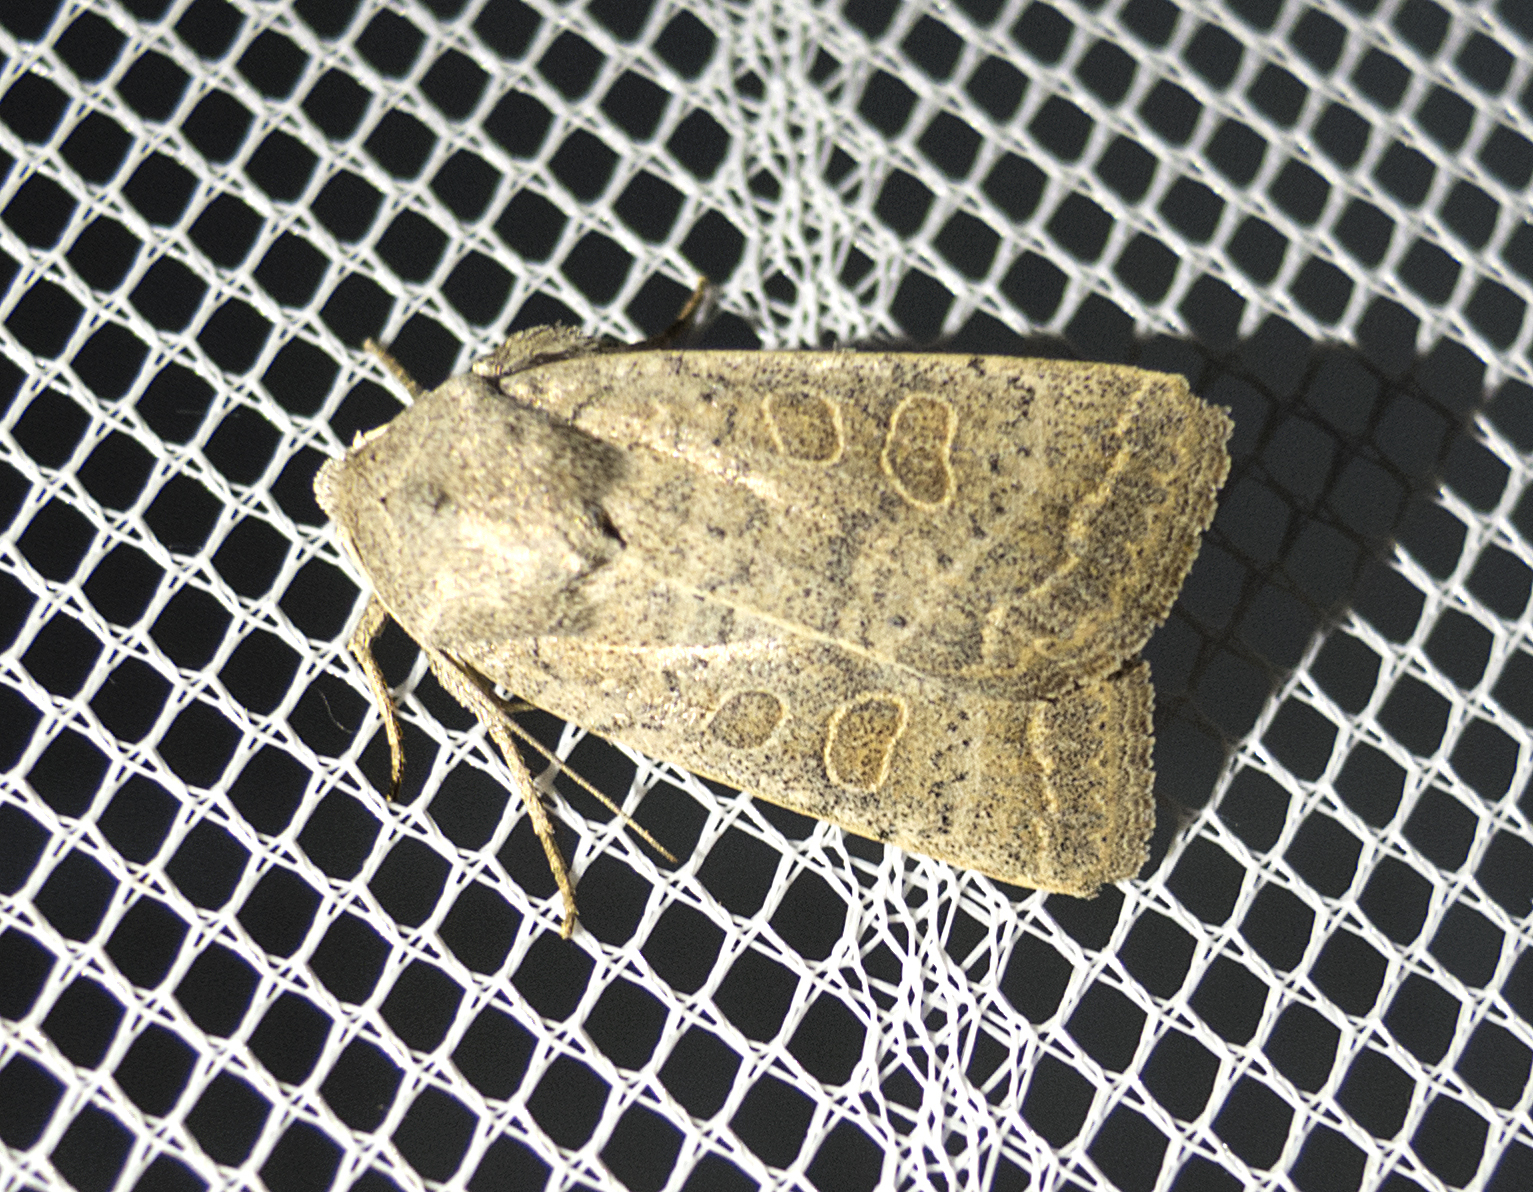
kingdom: Animalia
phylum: Arthropoda
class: Insecta
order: Lepidoptera
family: Noctuidae
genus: Hoplodrina
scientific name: Hoplodrina ambigua
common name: Vine's rustic
